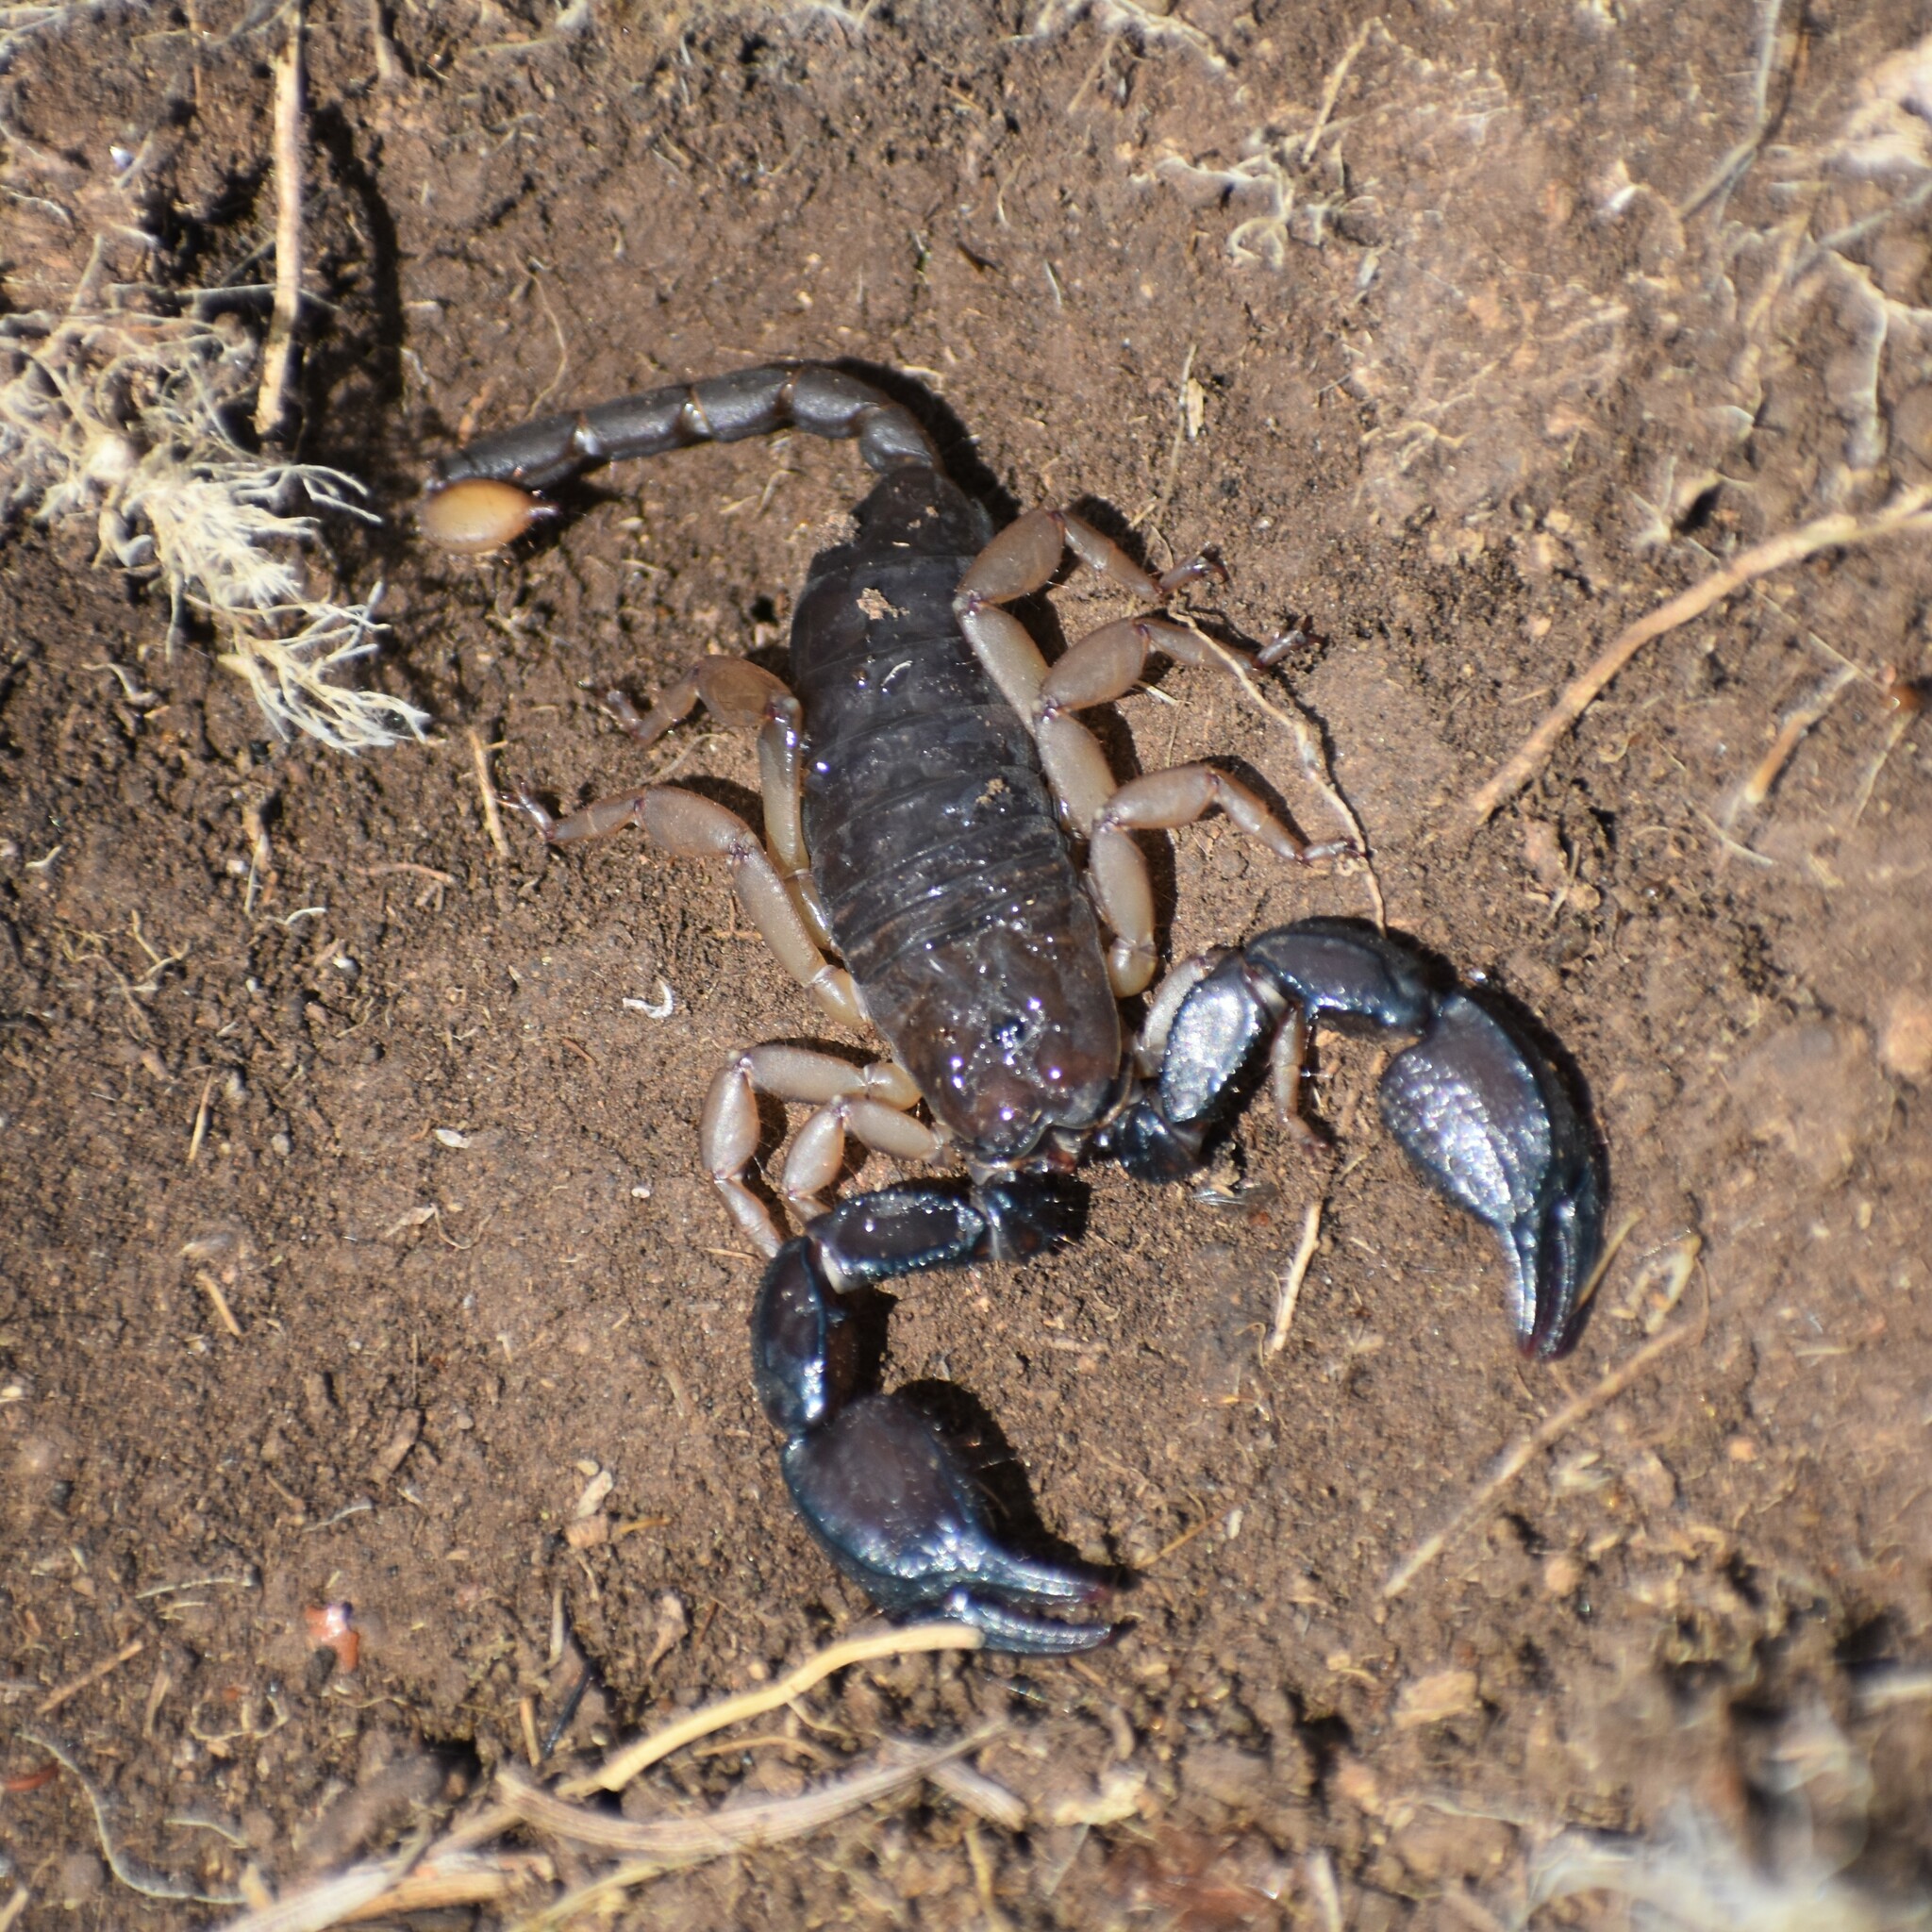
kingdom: Animalia
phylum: Arthropoda
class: Arachnida
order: Scorpiones
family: Hormuridae
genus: Opisthacanthus
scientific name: Opisthacanthus basutus
